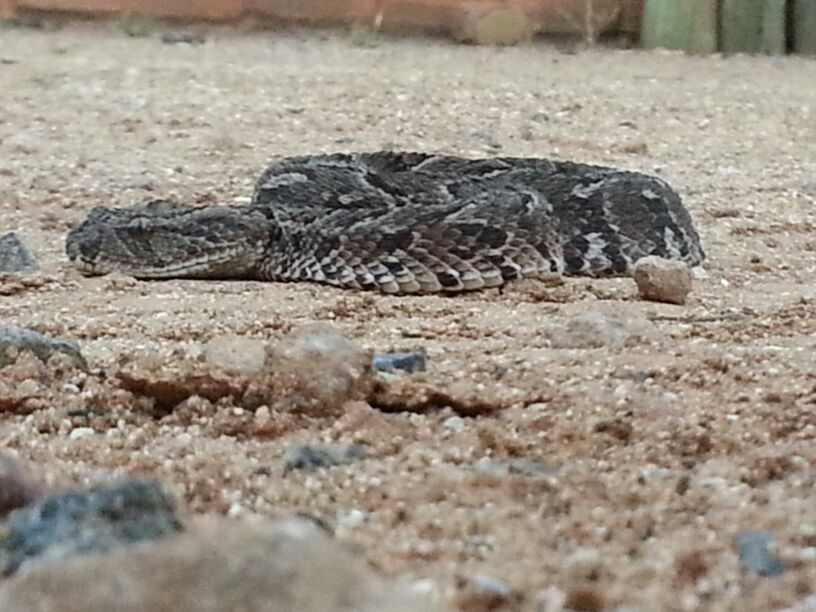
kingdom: Animalia
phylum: Chordata
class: Squamata
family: Viperidae
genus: Bitis
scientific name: Bitis arietans
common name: Puff adder
